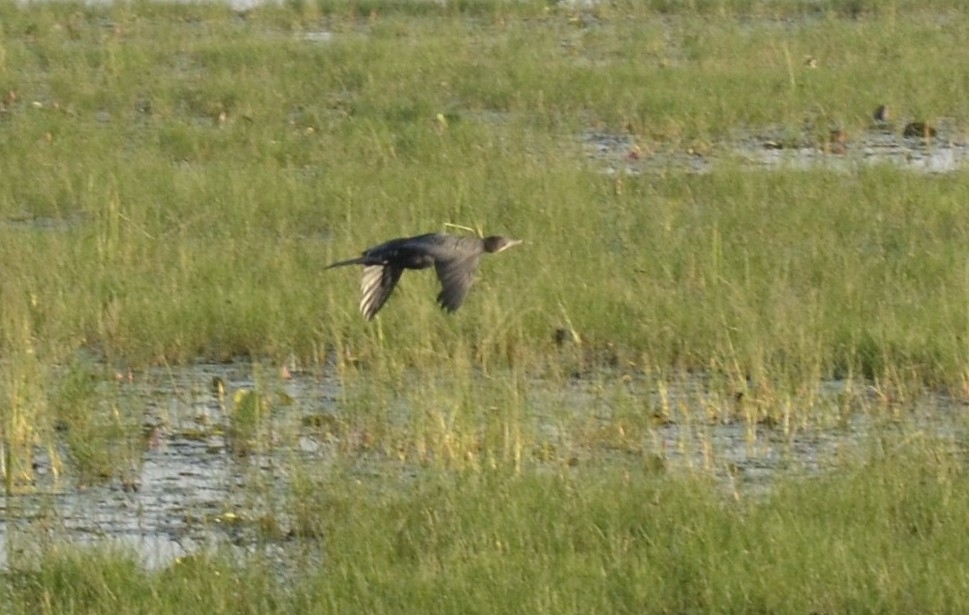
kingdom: Animalia
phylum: Chordata
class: Aves
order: Suliformes
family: Phalacrocoracidae
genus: Microcarbo
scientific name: Microcarbo niger
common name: Little cormorant
